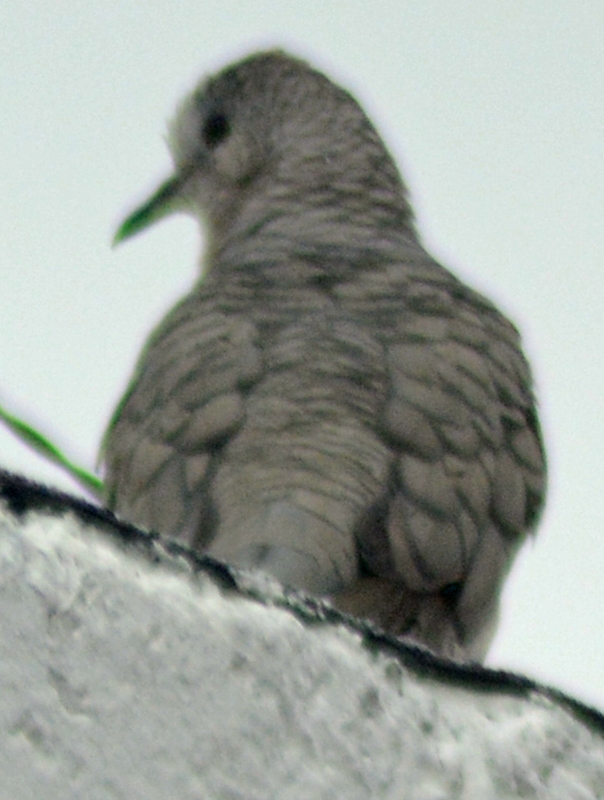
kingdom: Animalia
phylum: Chordata
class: Aves
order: Columbiformes
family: Columbidae
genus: Columbina
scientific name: Columbina inca
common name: Inca dove
